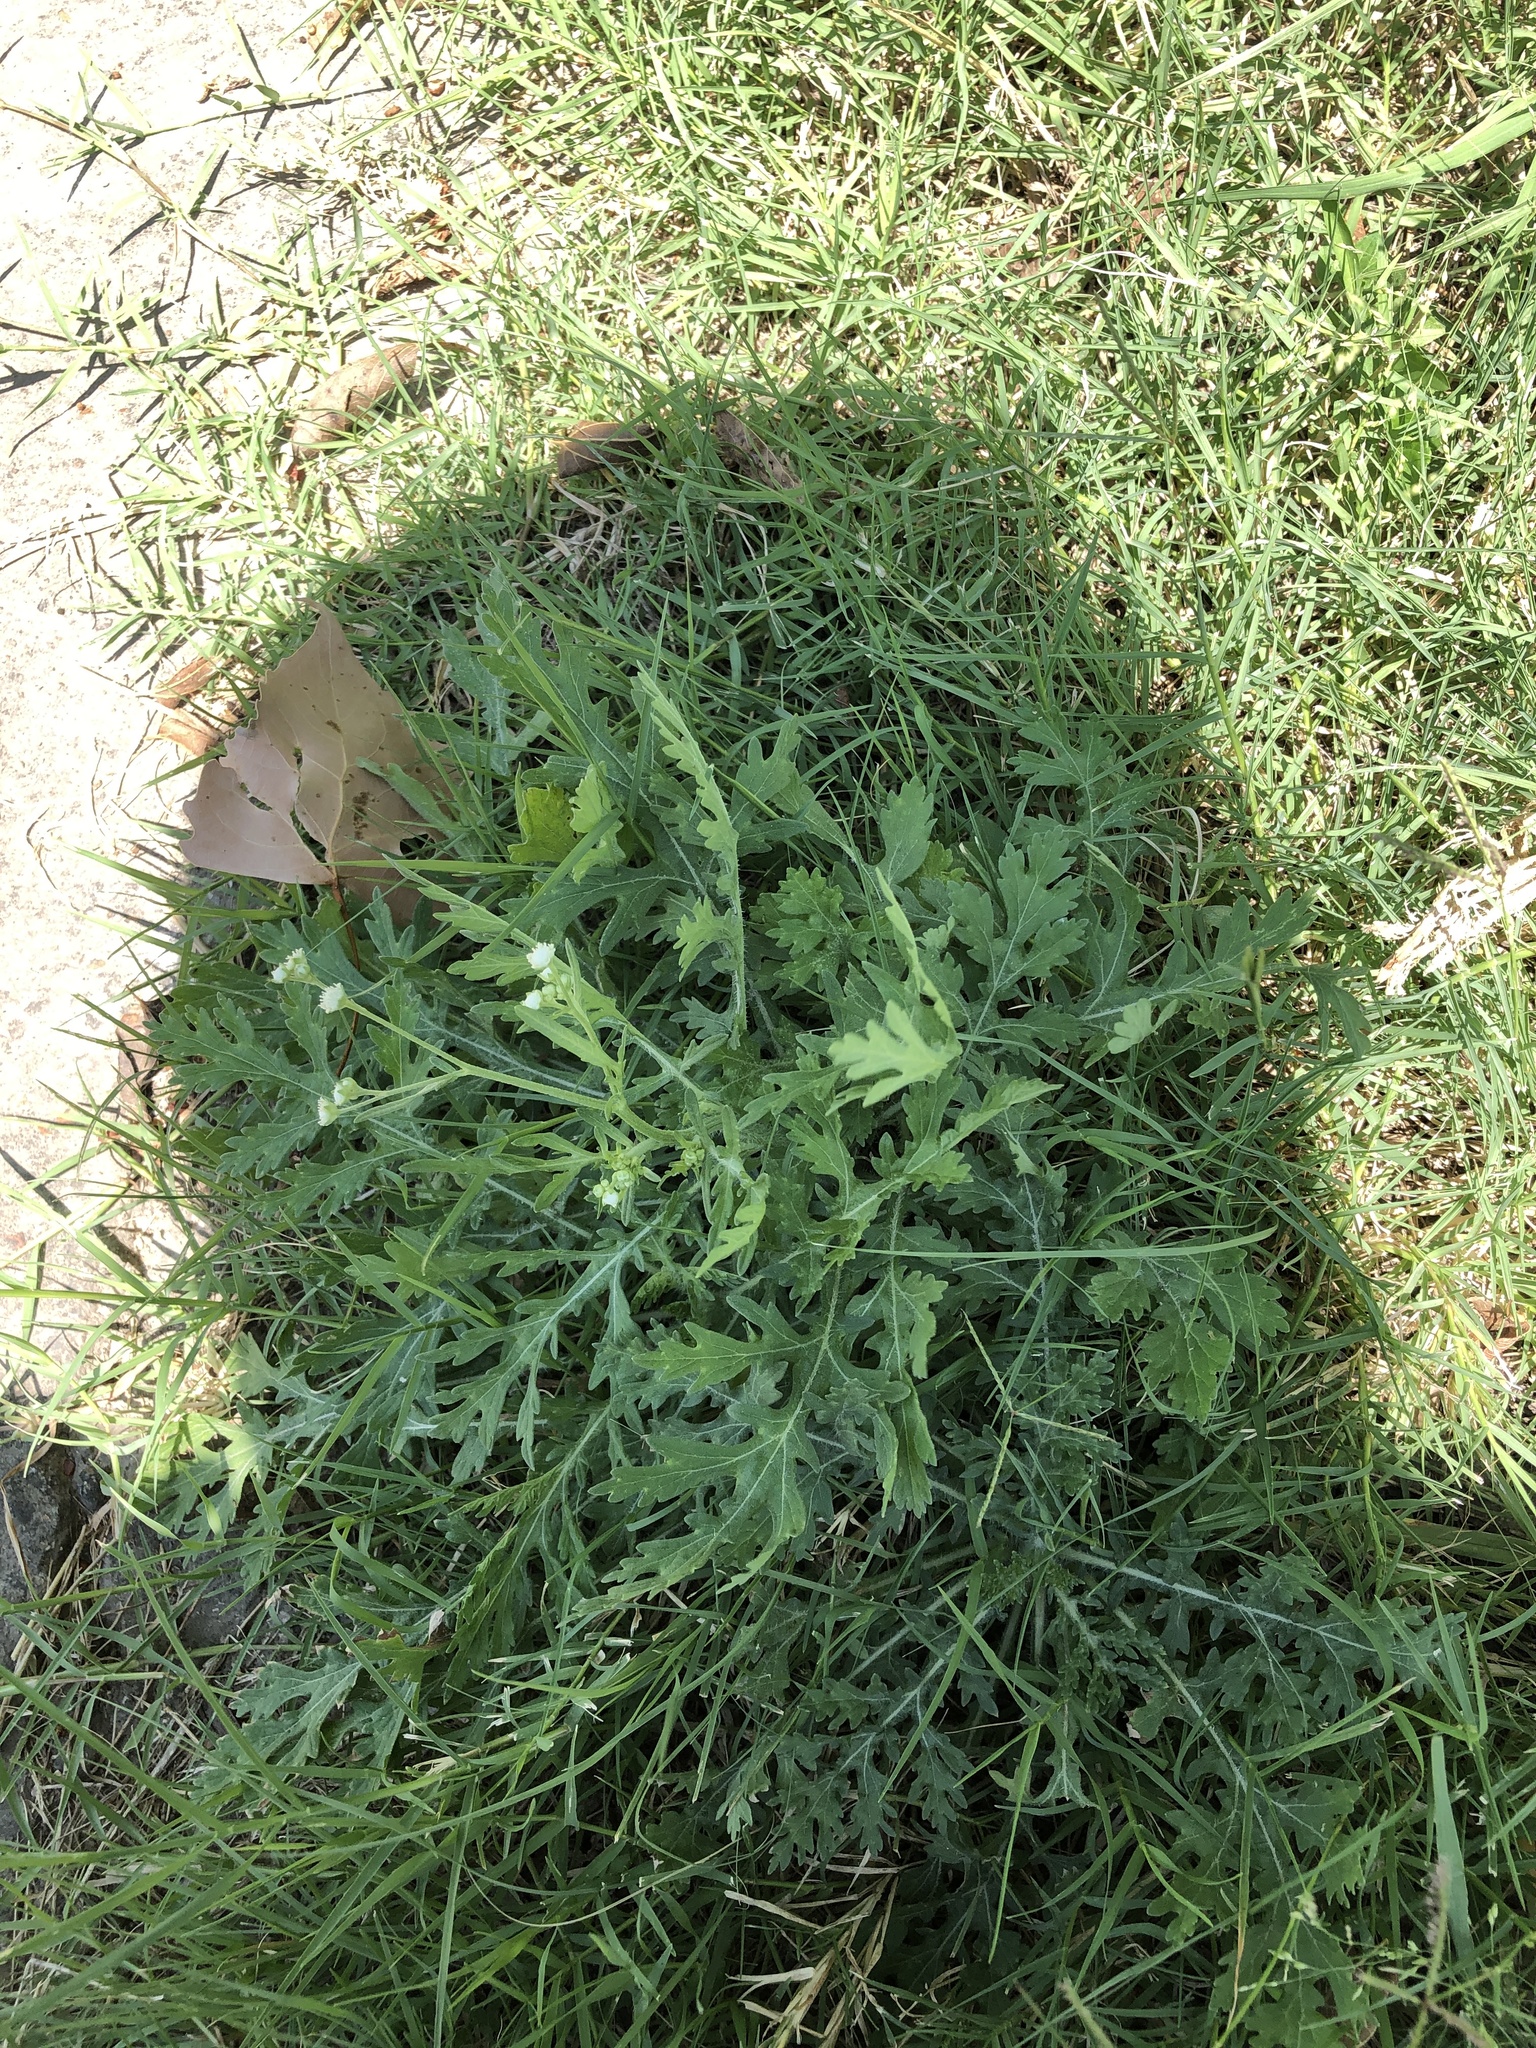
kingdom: Plantae
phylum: Tracheophyta
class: Magnoliopsida
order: Asterales
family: Asteraceae
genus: Parthenium
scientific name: Parthenium hysterophorus
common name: Santa maria feverfew
